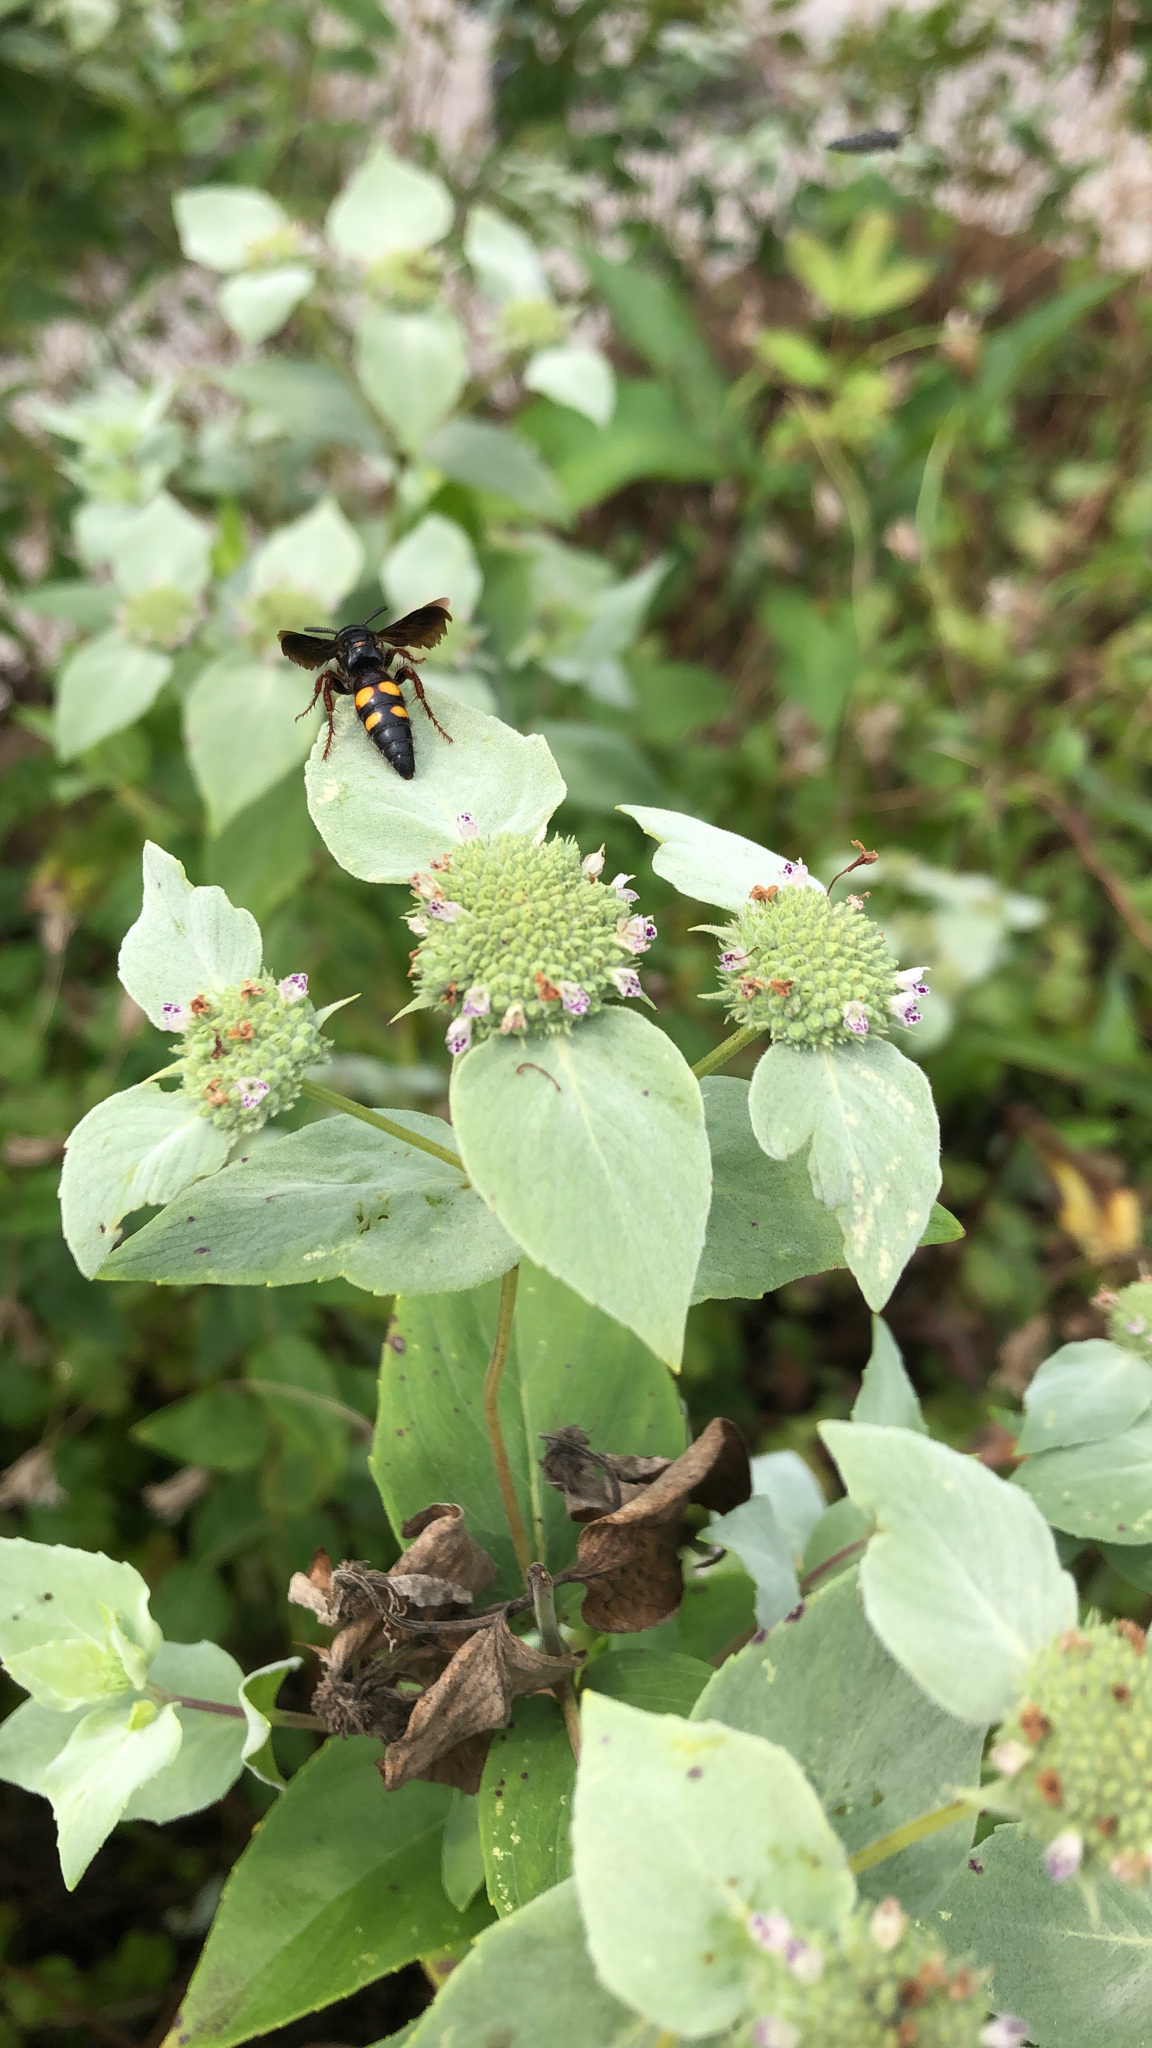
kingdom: Animalia
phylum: Arthropoda
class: Insecta
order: Hymenoptera
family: Scoliidae
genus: Scolia
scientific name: Scolia nobilitata
